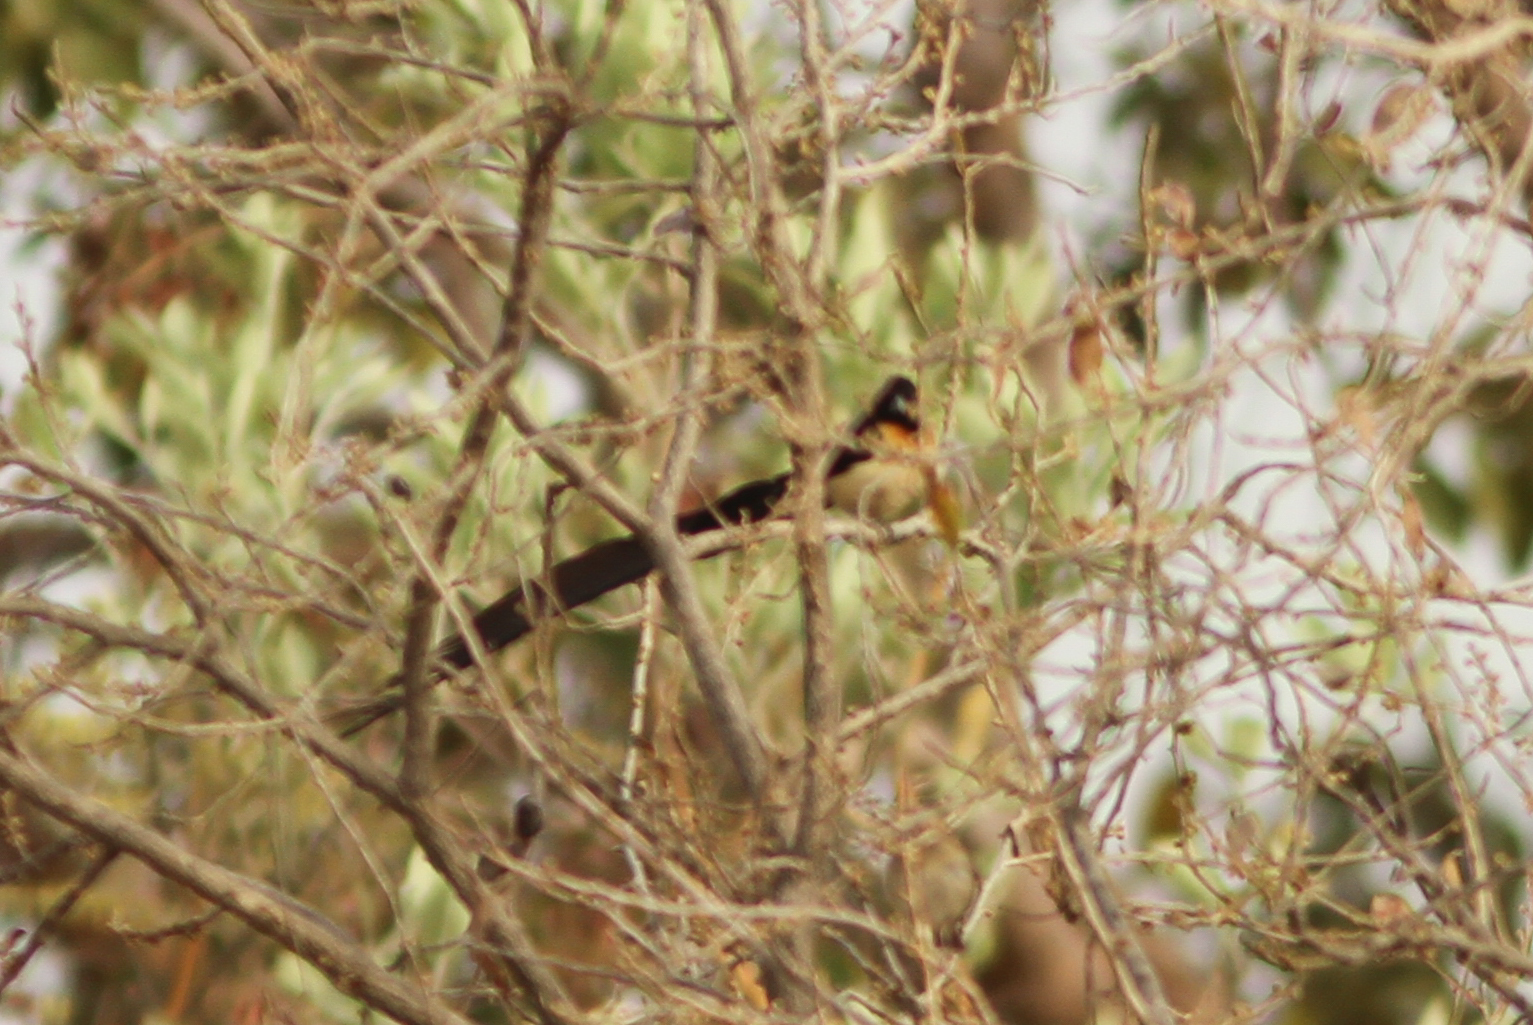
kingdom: Animalia
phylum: Chordata
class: Aves
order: Passeriformes
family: Viduidae
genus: Vidua
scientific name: Vidua interjecta
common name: Exclamatory paradise whydah
